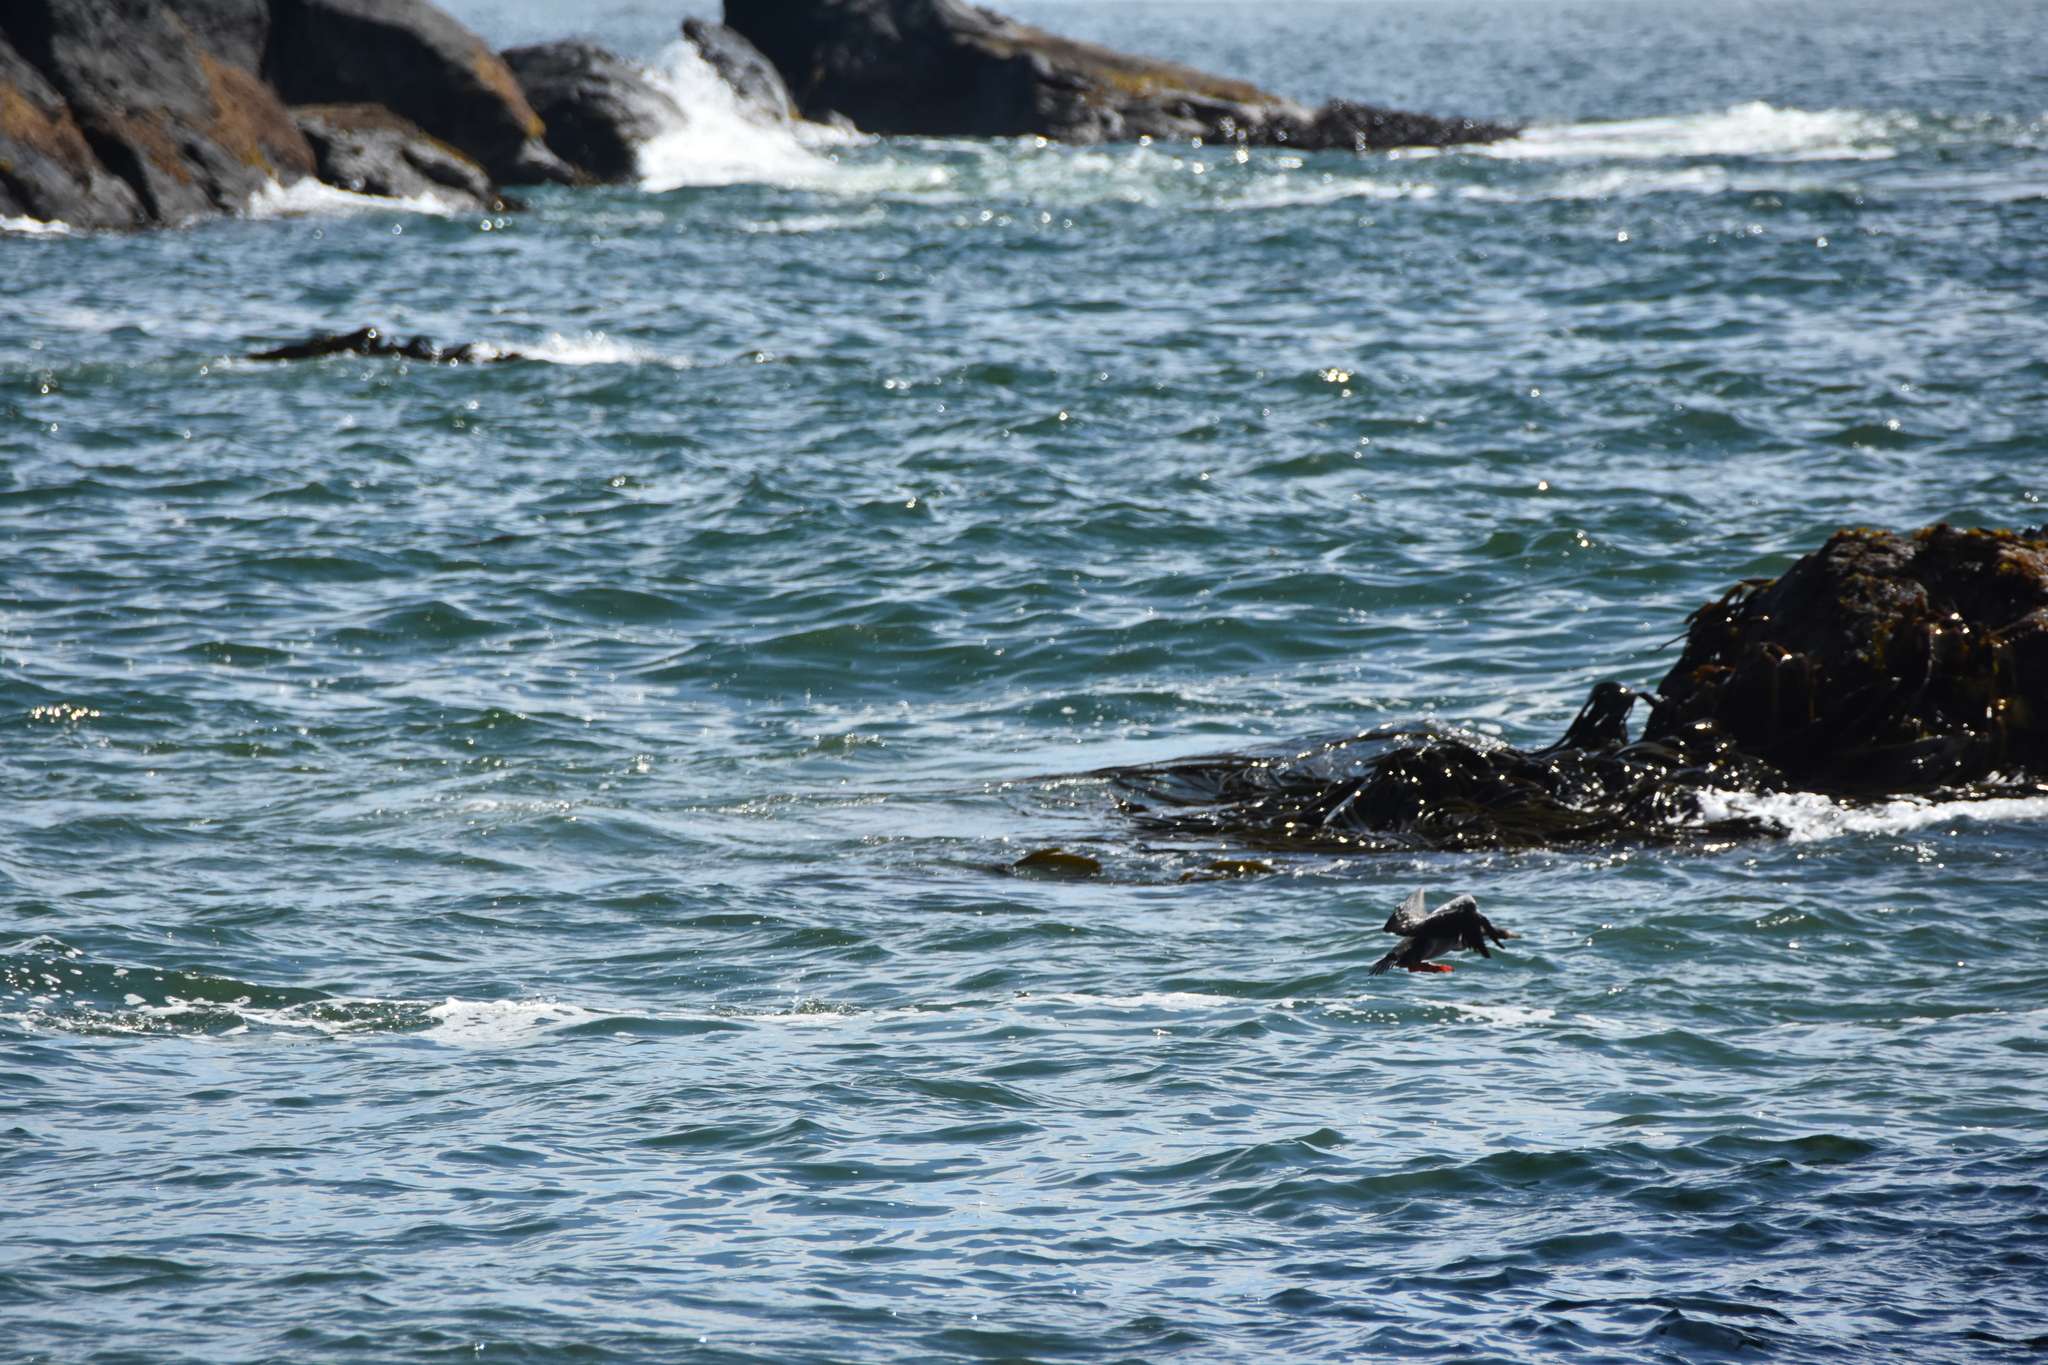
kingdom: Animalia
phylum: Chordata
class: Aves
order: Suliformes
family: Phalacrocoracidae
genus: Phalacrocorax
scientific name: Phalacrocorax gaimardi
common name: Red-legged cormorant
